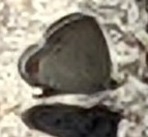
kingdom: Animalia
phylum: Arthropoda
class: Insecta
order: Lepidoptera
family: Lycaenidae
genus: Elkalyce
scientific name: Elkalyce comyntas
